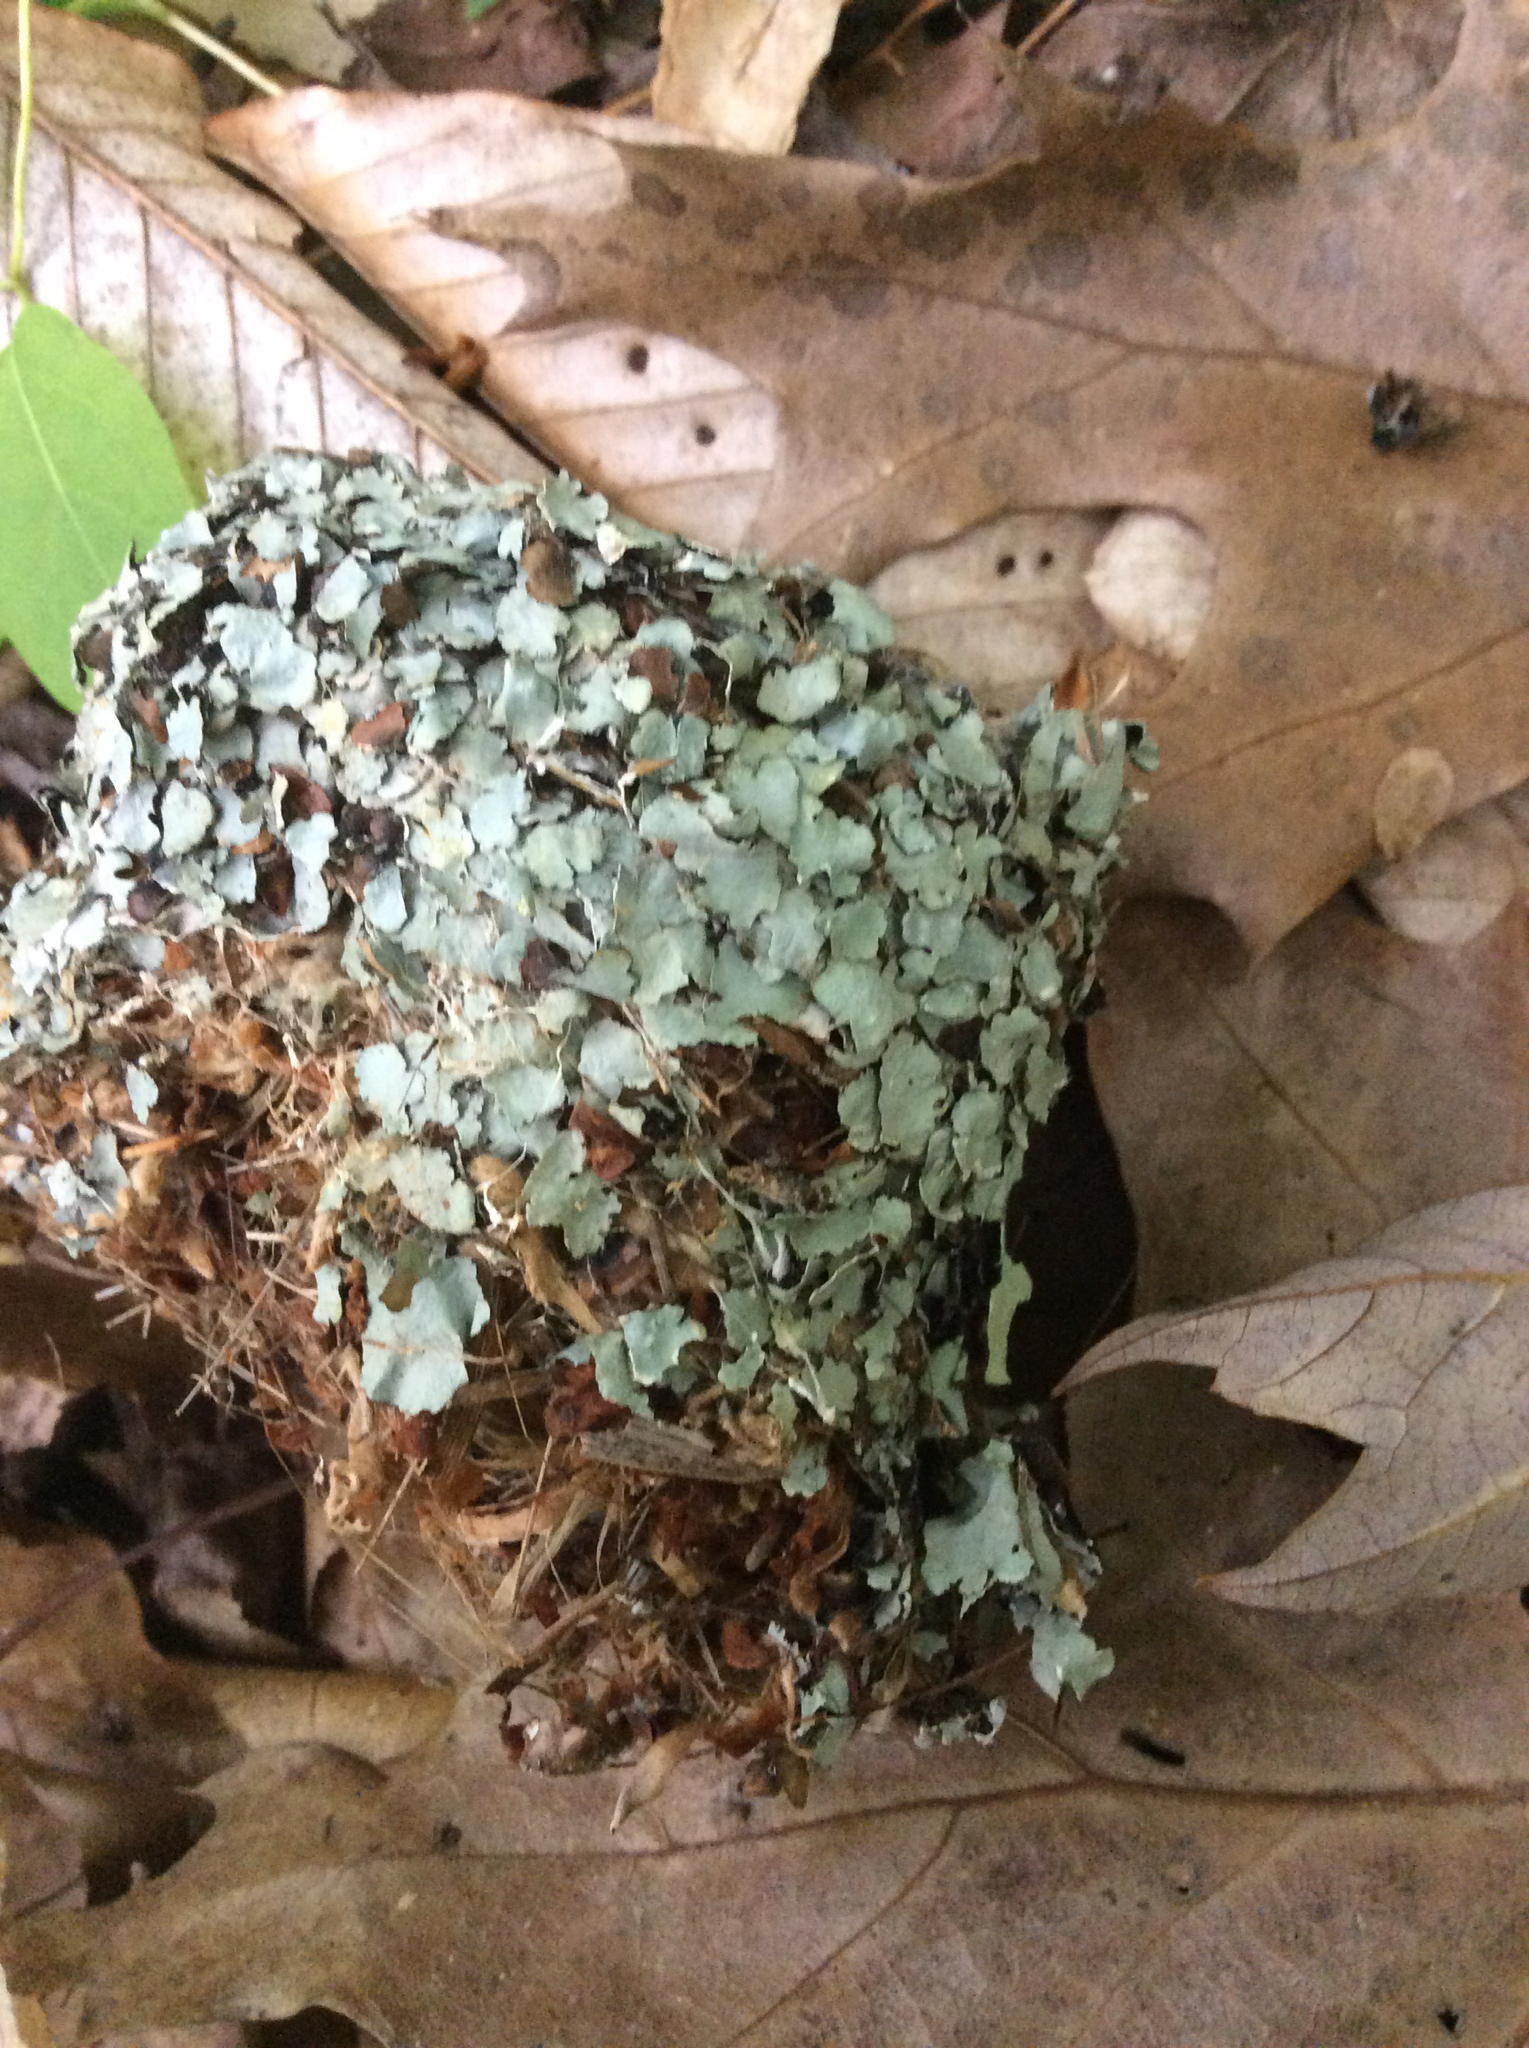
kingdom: Animalia
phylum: Chordata
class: Aves
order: Apodiformes
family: Trochilidae
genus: Archilochus
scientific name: Archilochus colubris
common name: Ruby-throated hummingbird
